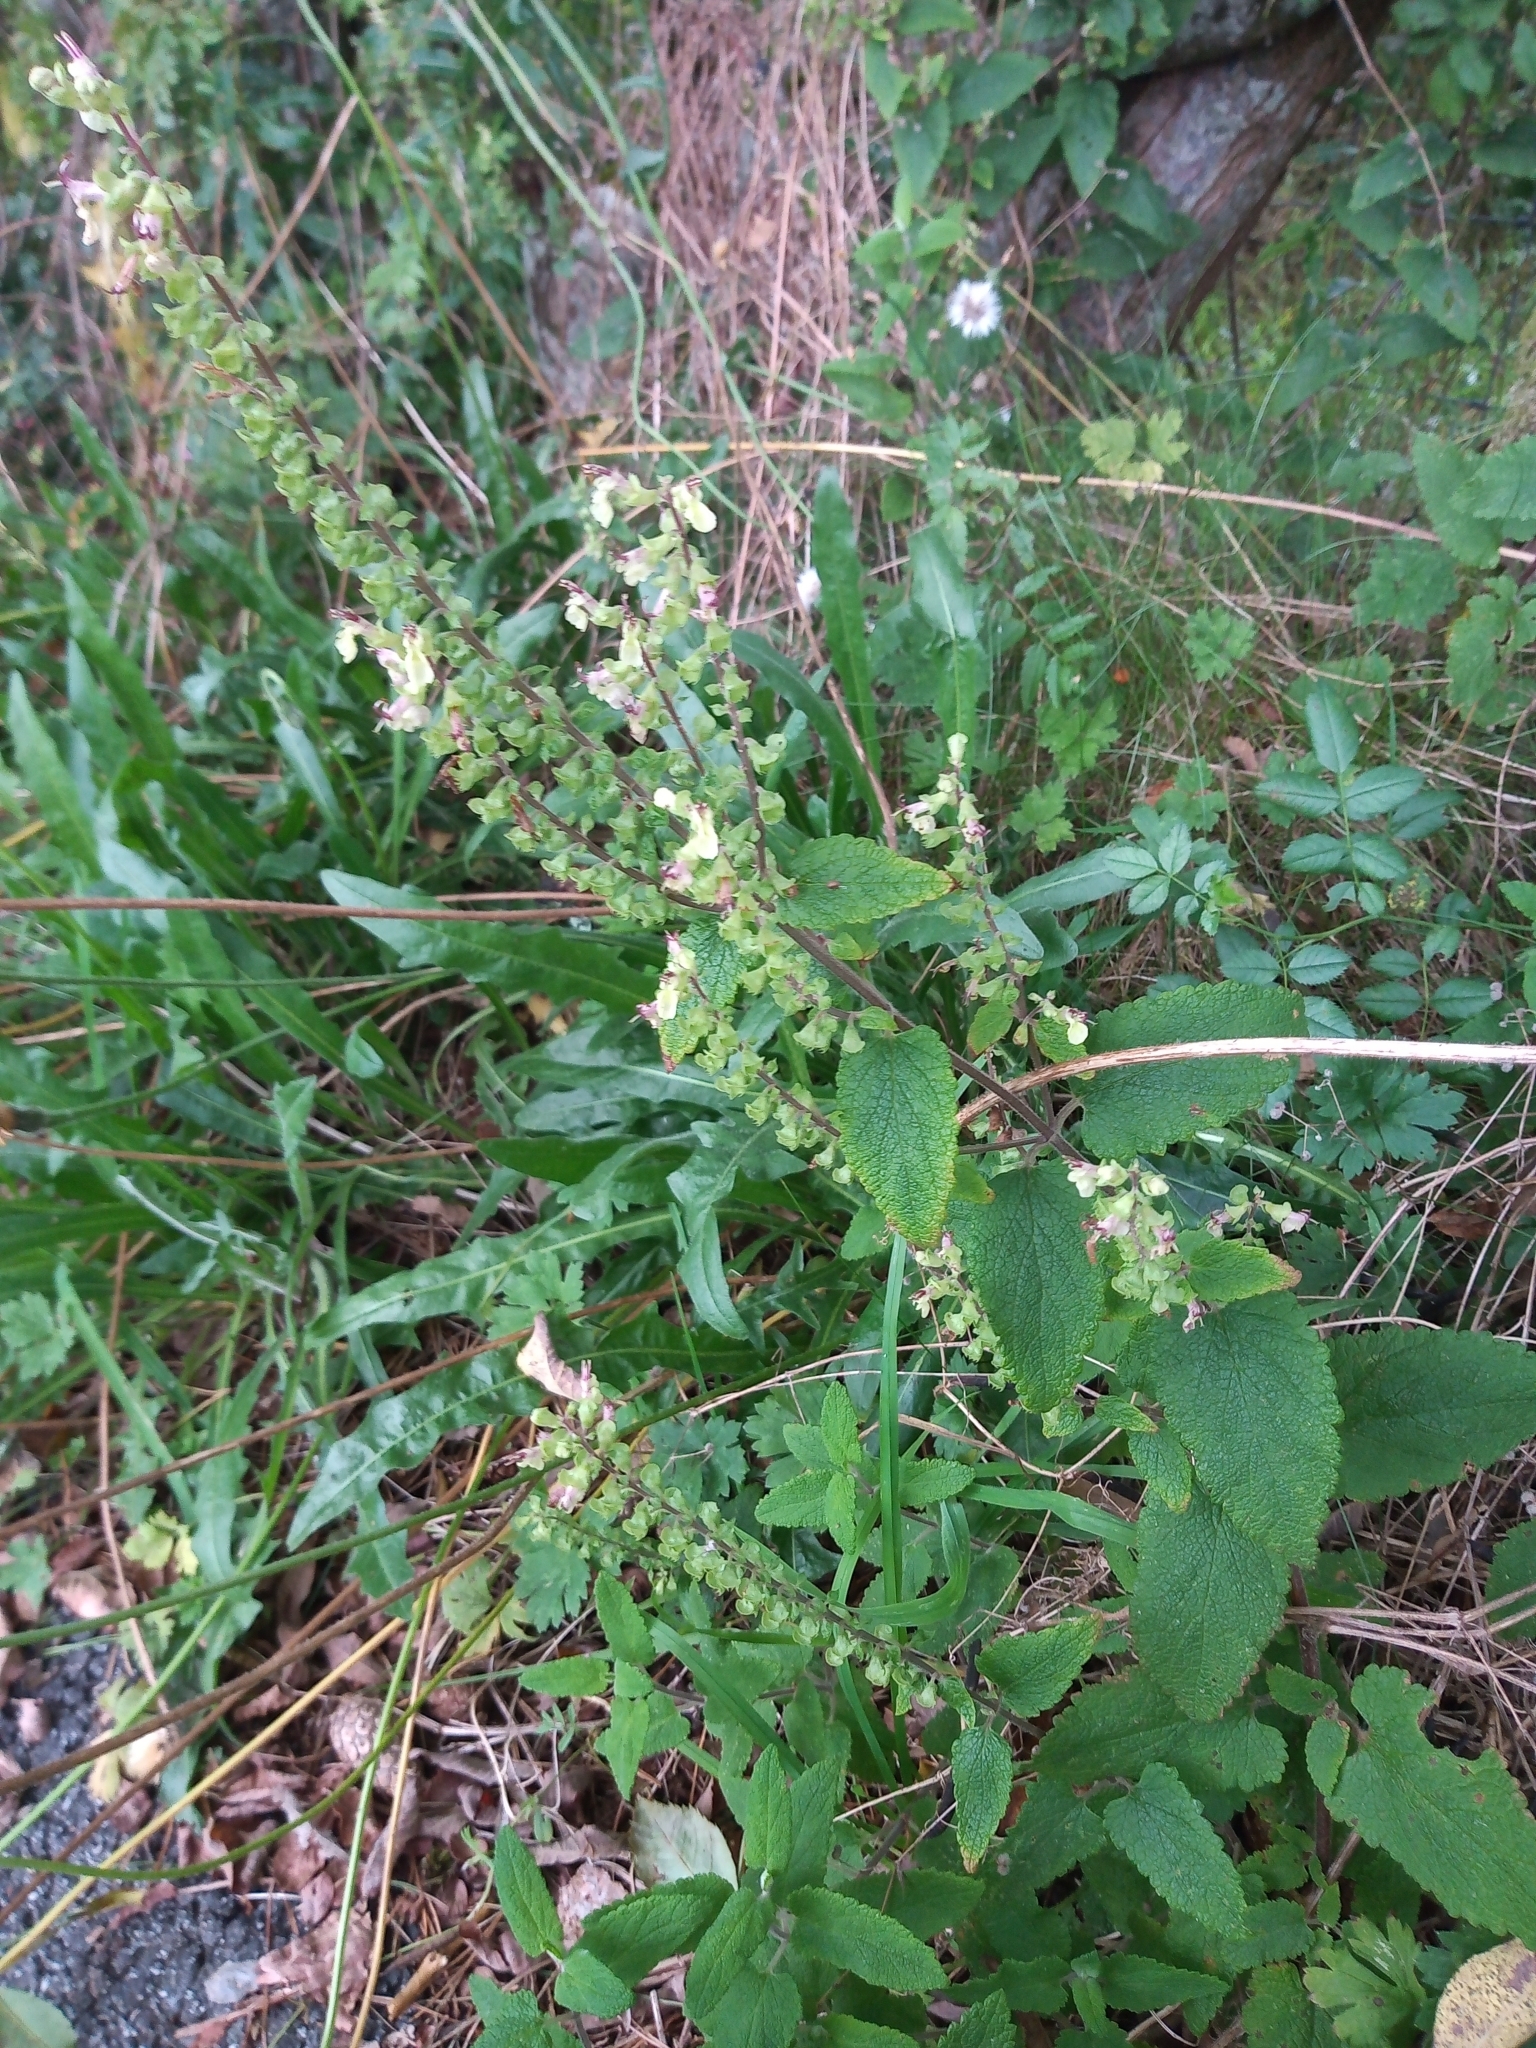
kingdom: Plantae
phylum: Tracheophyta
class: Magnoliopsida
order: Lamiales
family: Lamiaceae
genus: Teucrium
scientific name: Teucrium scorodonia
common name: Woodland germander
